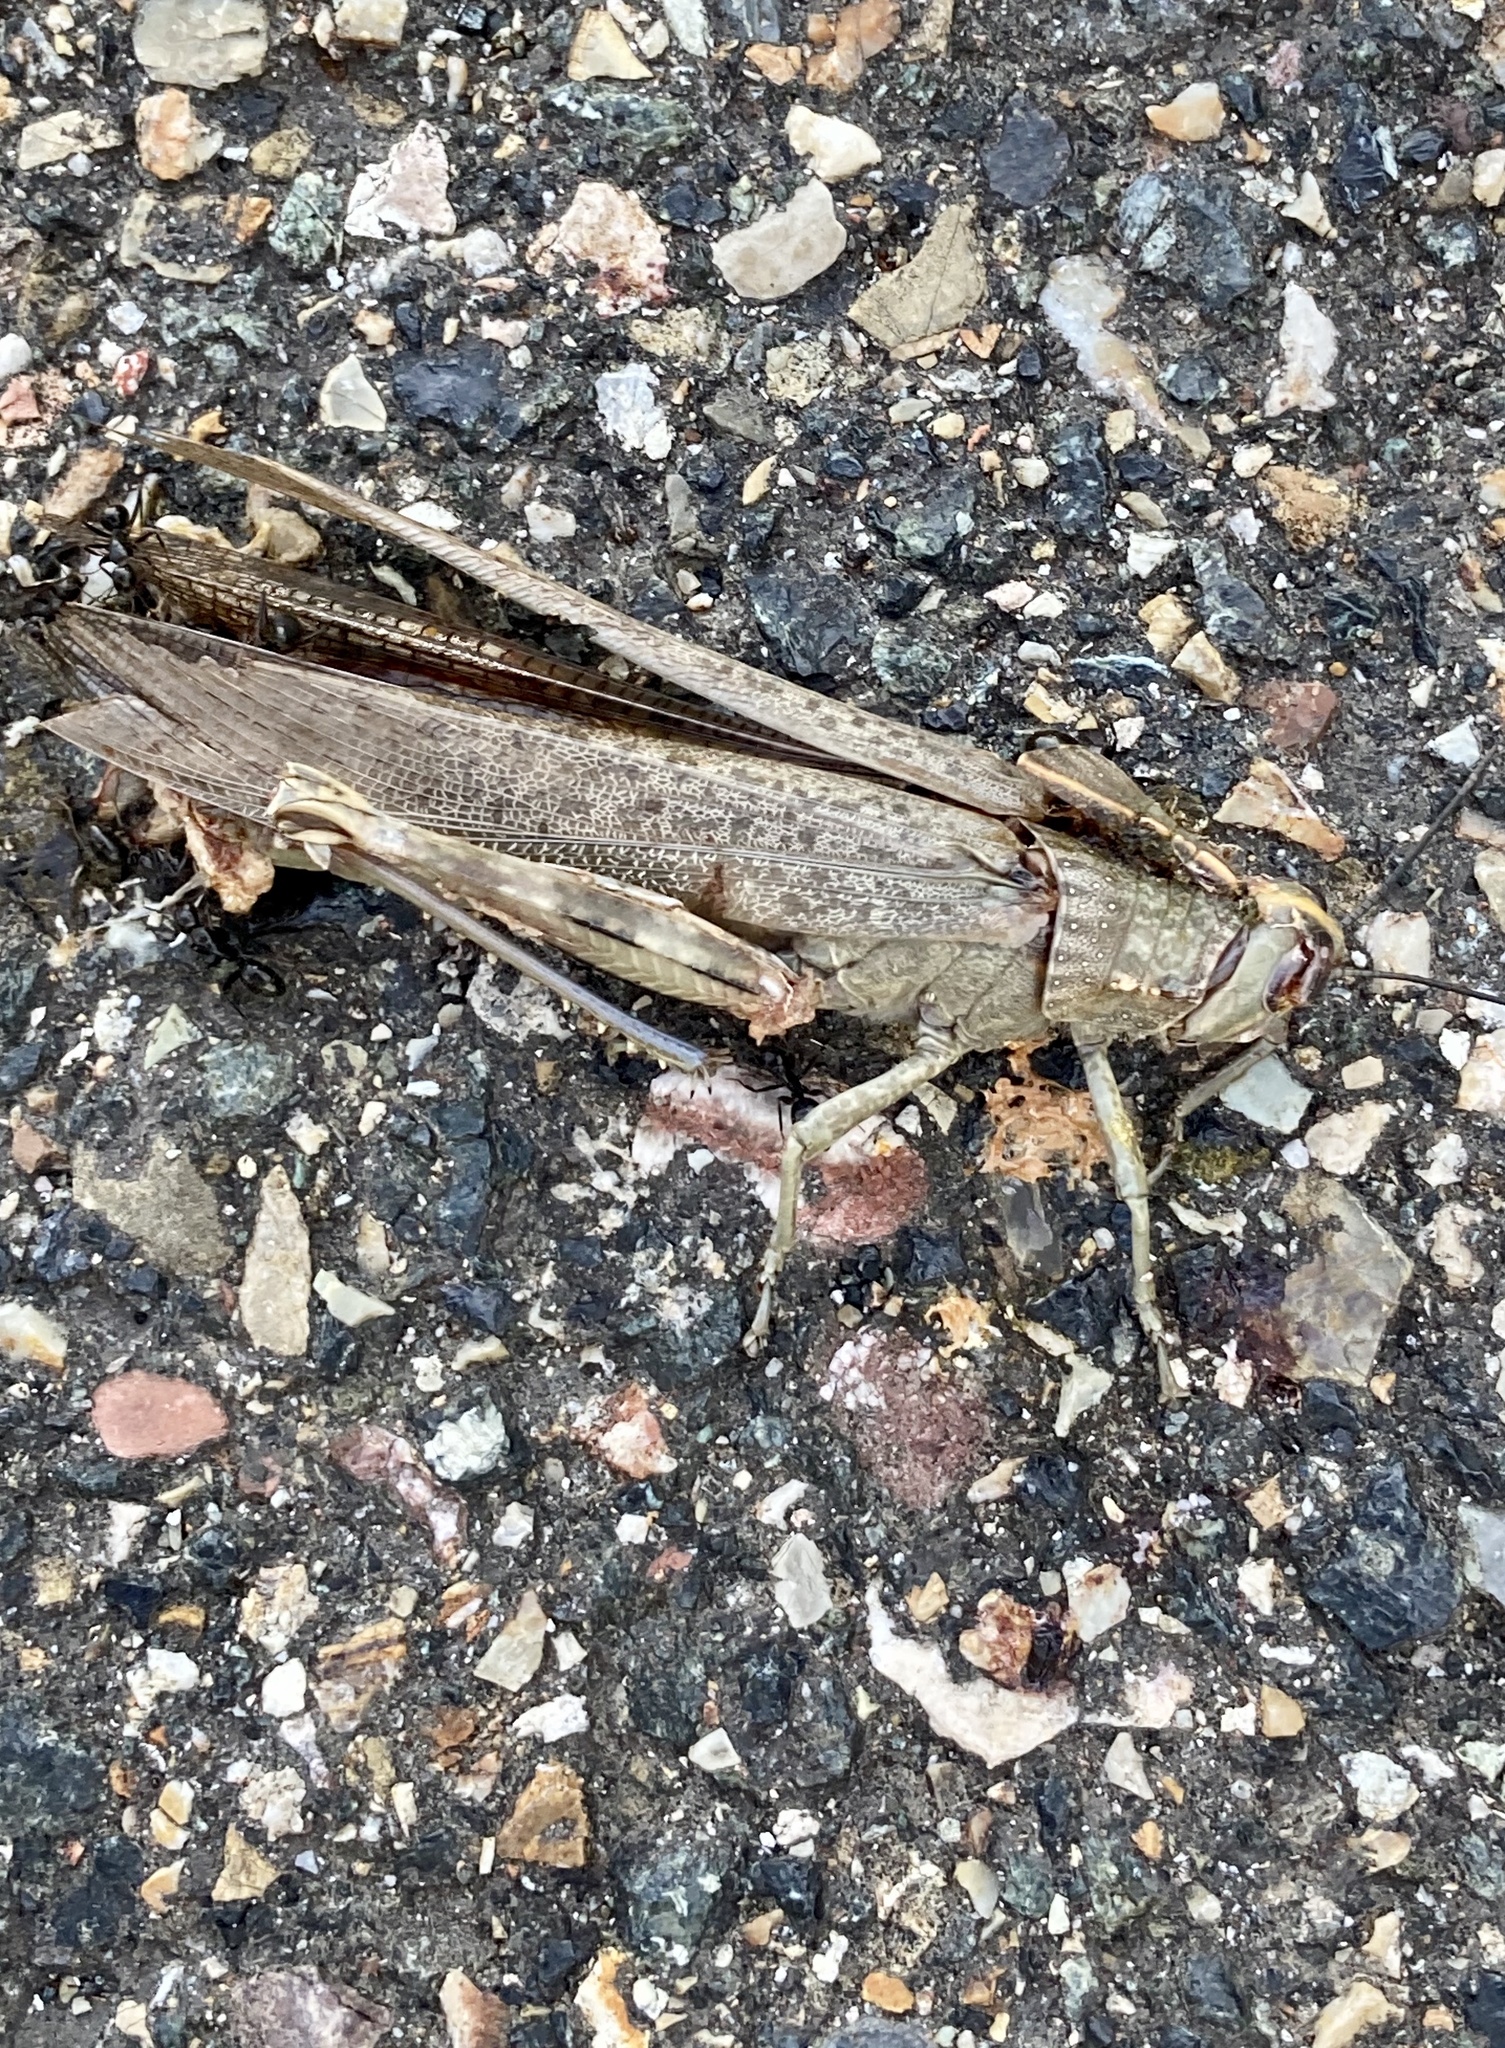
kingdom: Animalia
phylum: Arthropoda
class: Insecta
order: Orthoptera
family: Acrididae
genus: Anacridium
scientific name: Anacridium aegyptium
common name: Egyptian grasshopper
